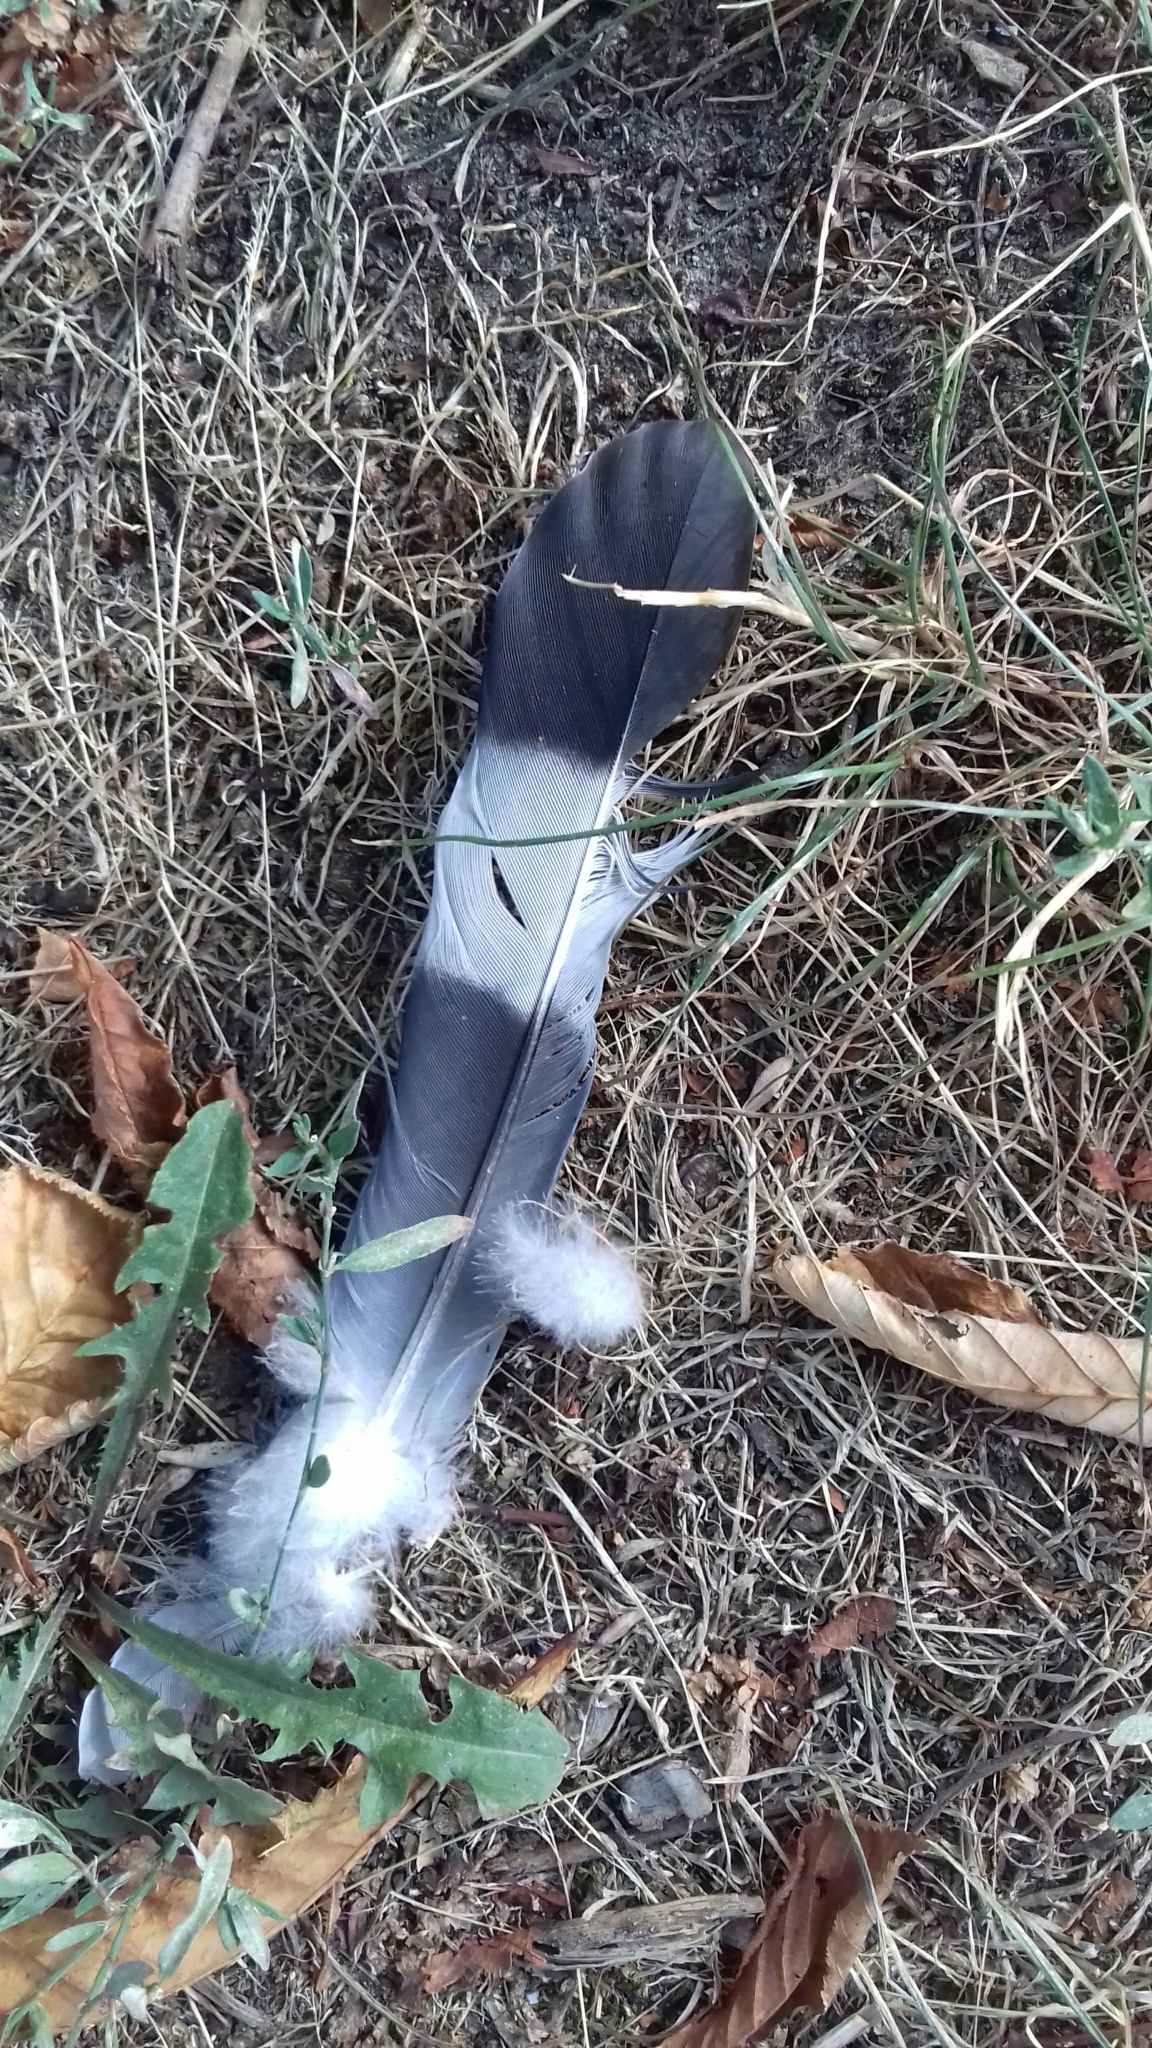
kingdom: Animalia
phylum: Chordata
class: Aves
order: Columbiformes
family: Columbidae
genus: Columba
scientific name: Columba palumbus
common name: Common wood pigeon
